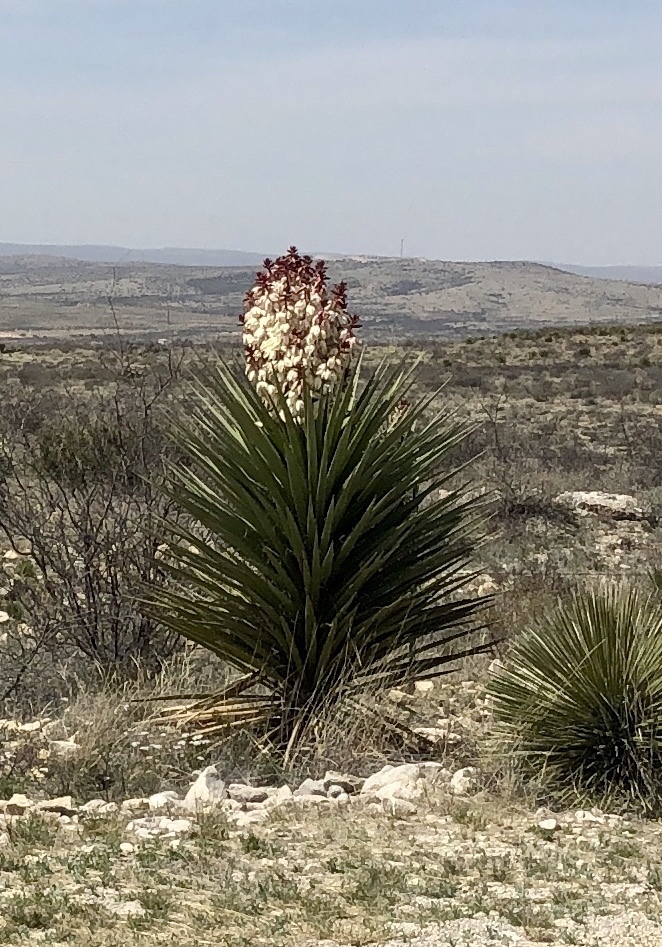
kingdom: Plantae
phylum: Tracheophyta
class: Liliopsida
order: Asparagales
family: Asparagaceae
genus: Yucca
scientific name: Yucca treculiana
